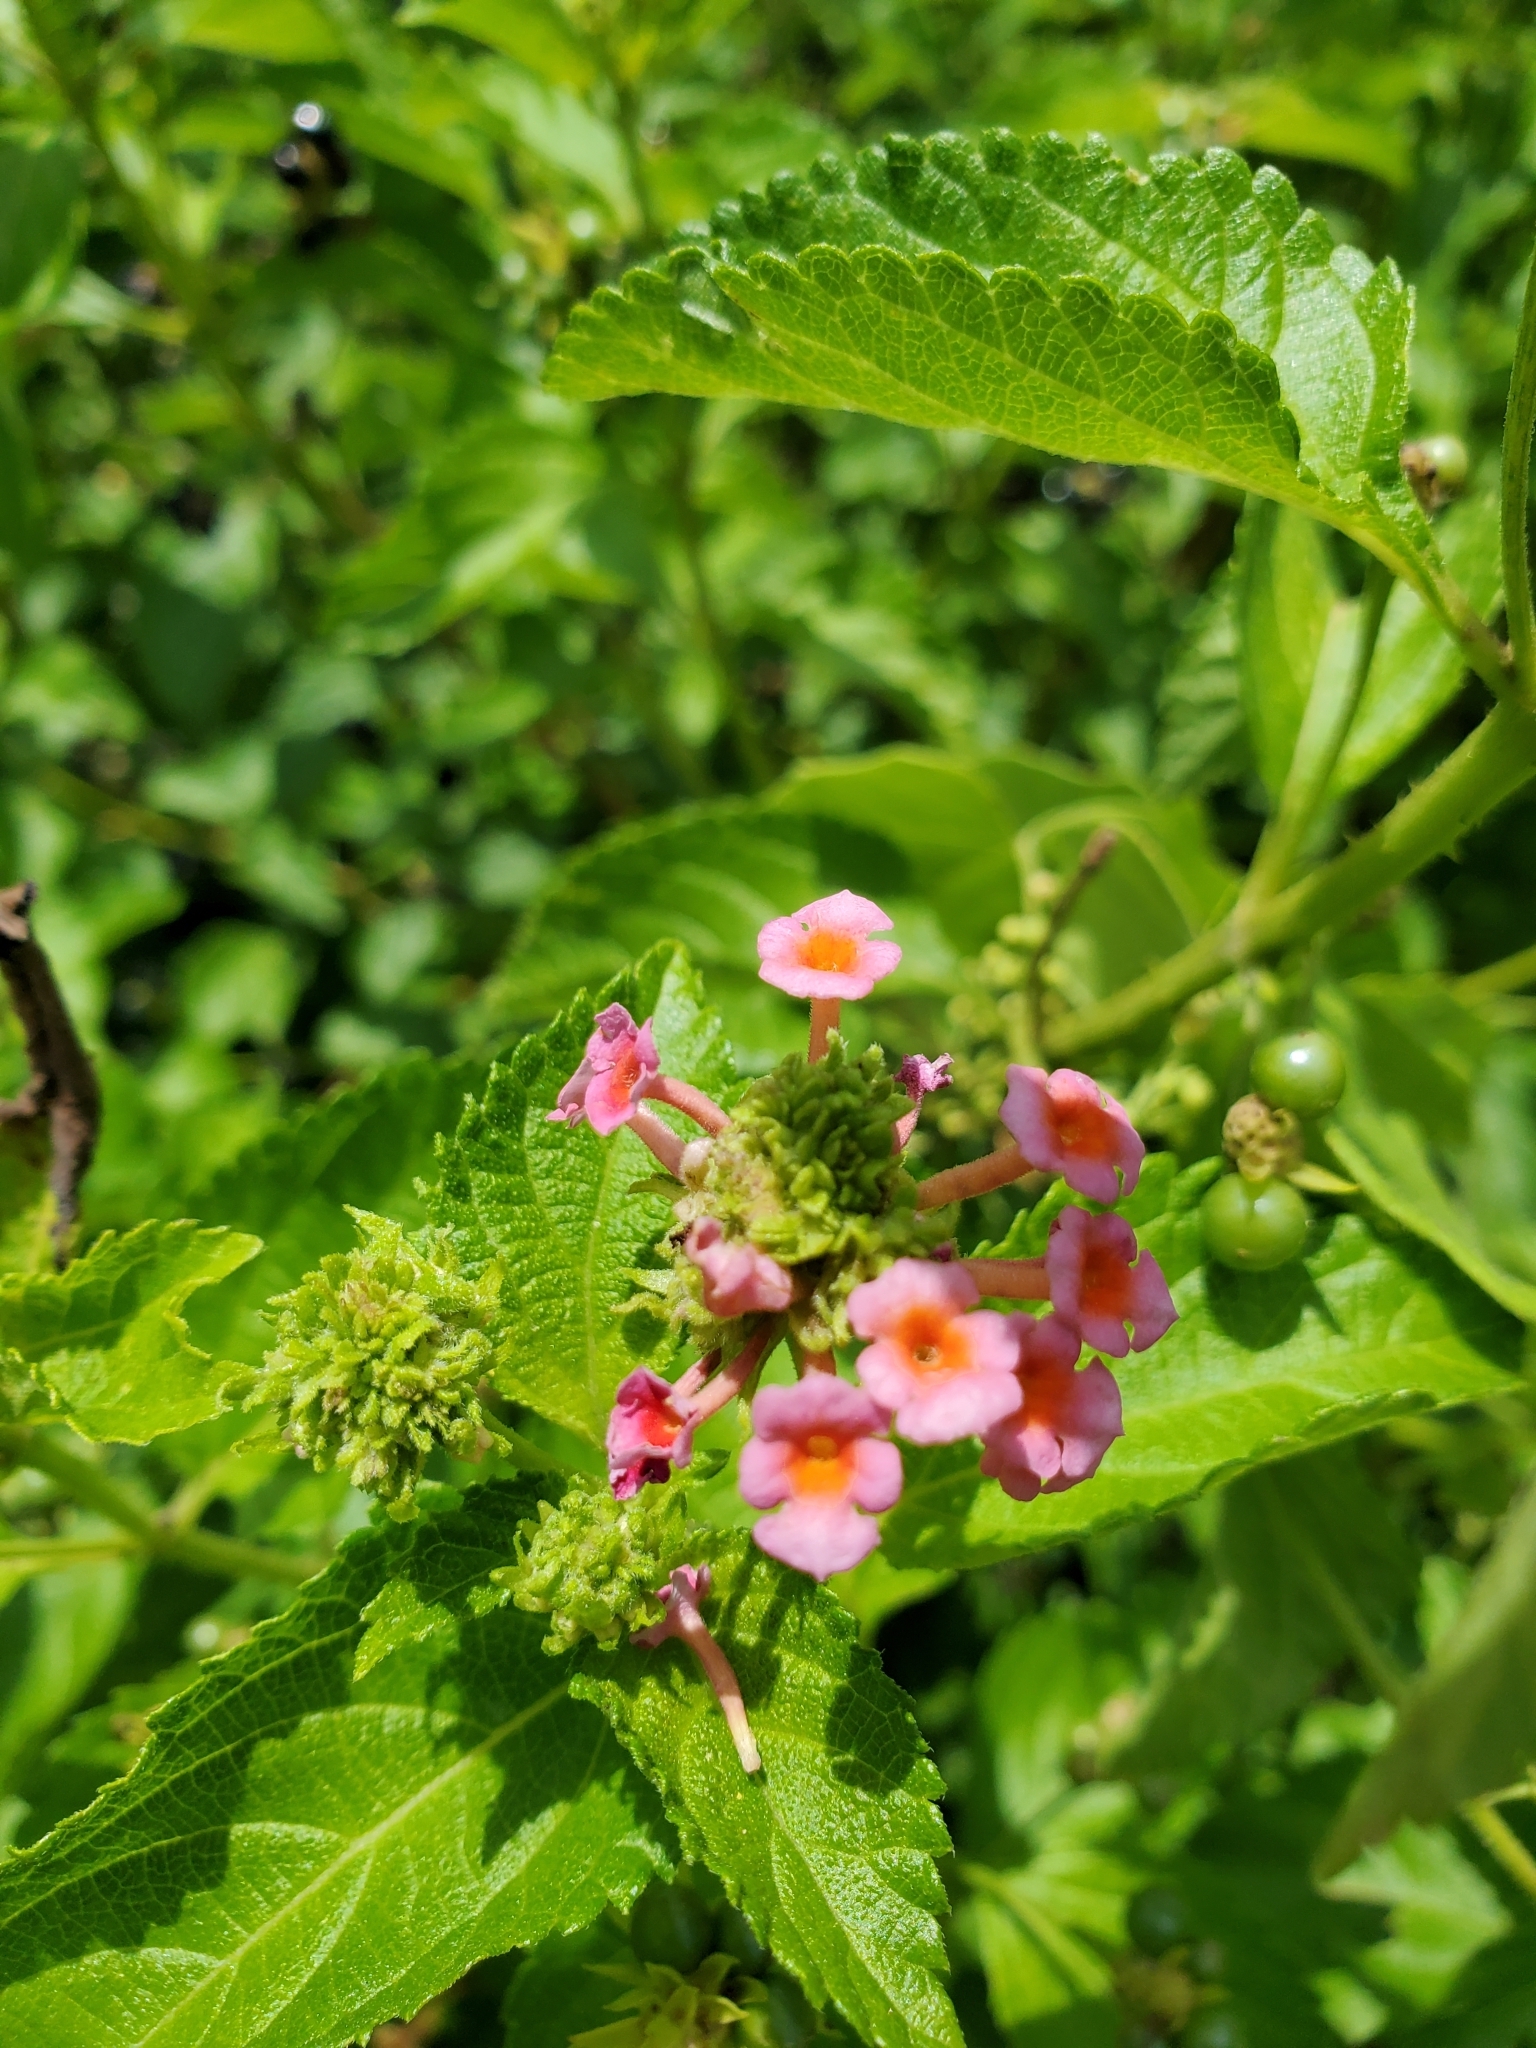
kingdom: Plantae
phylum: Tracheophyta
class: Magnoliopsida
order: Lamiales
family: Verbenaceae
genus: Lantana
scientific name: Lantana strigocamara
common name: Lantana
